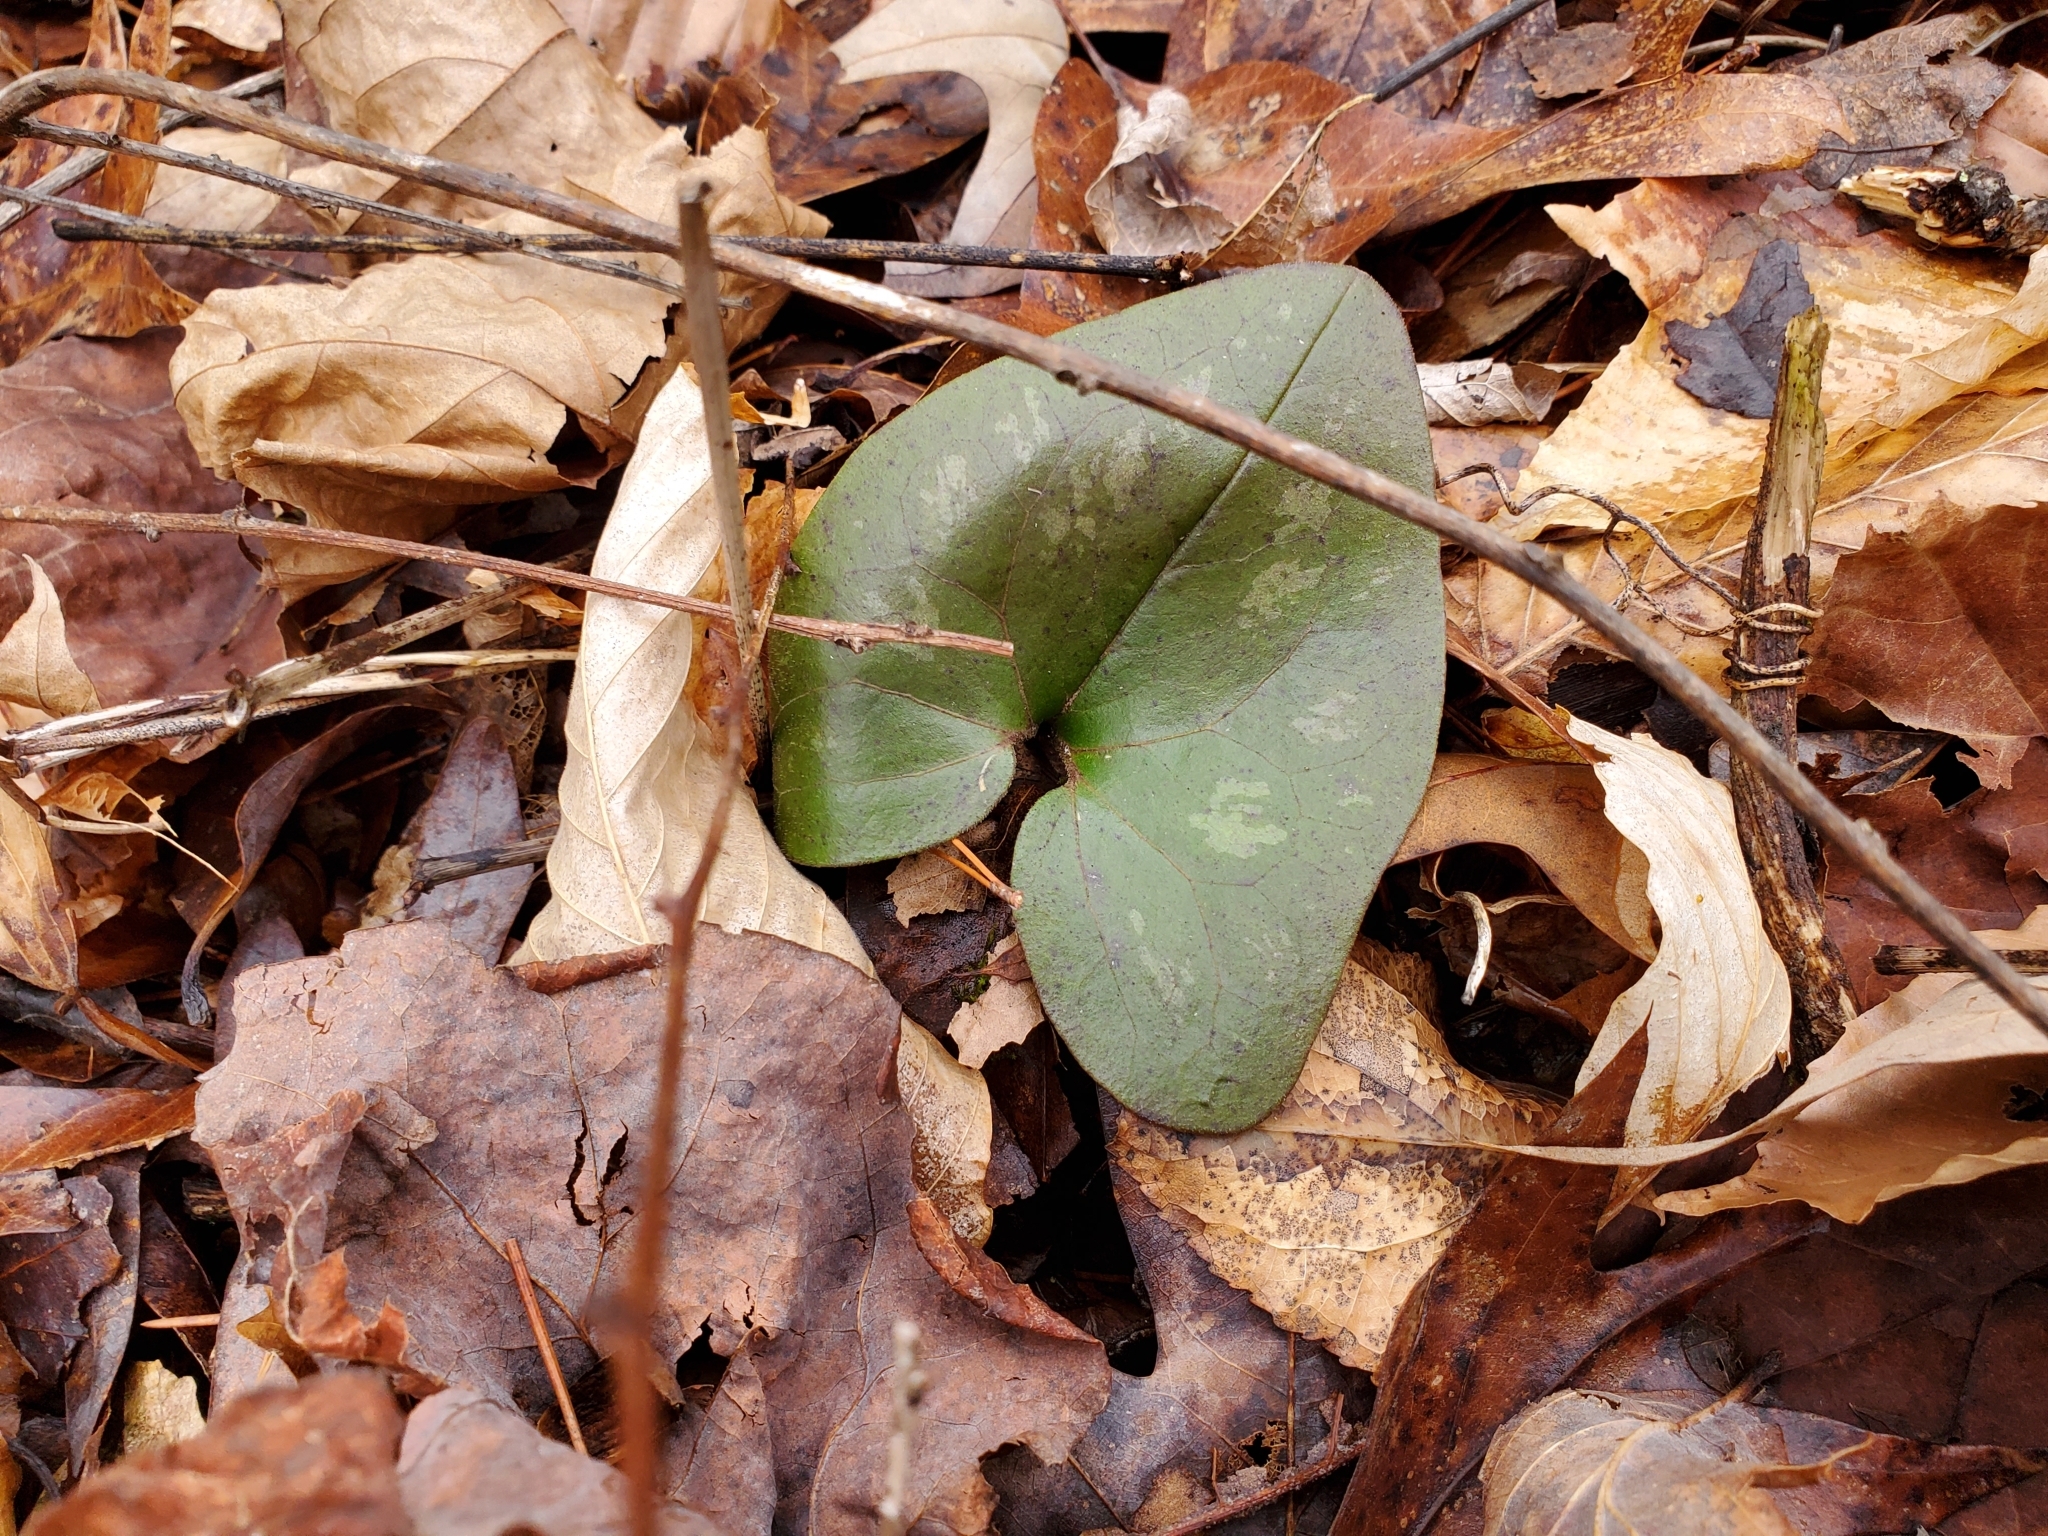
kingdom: Plantae
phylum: Tracheophyta
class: Magnoliopsida
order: Piperales
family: Aristolochiaceae
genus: Hexastylis
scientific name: Hexastylis arifolia
